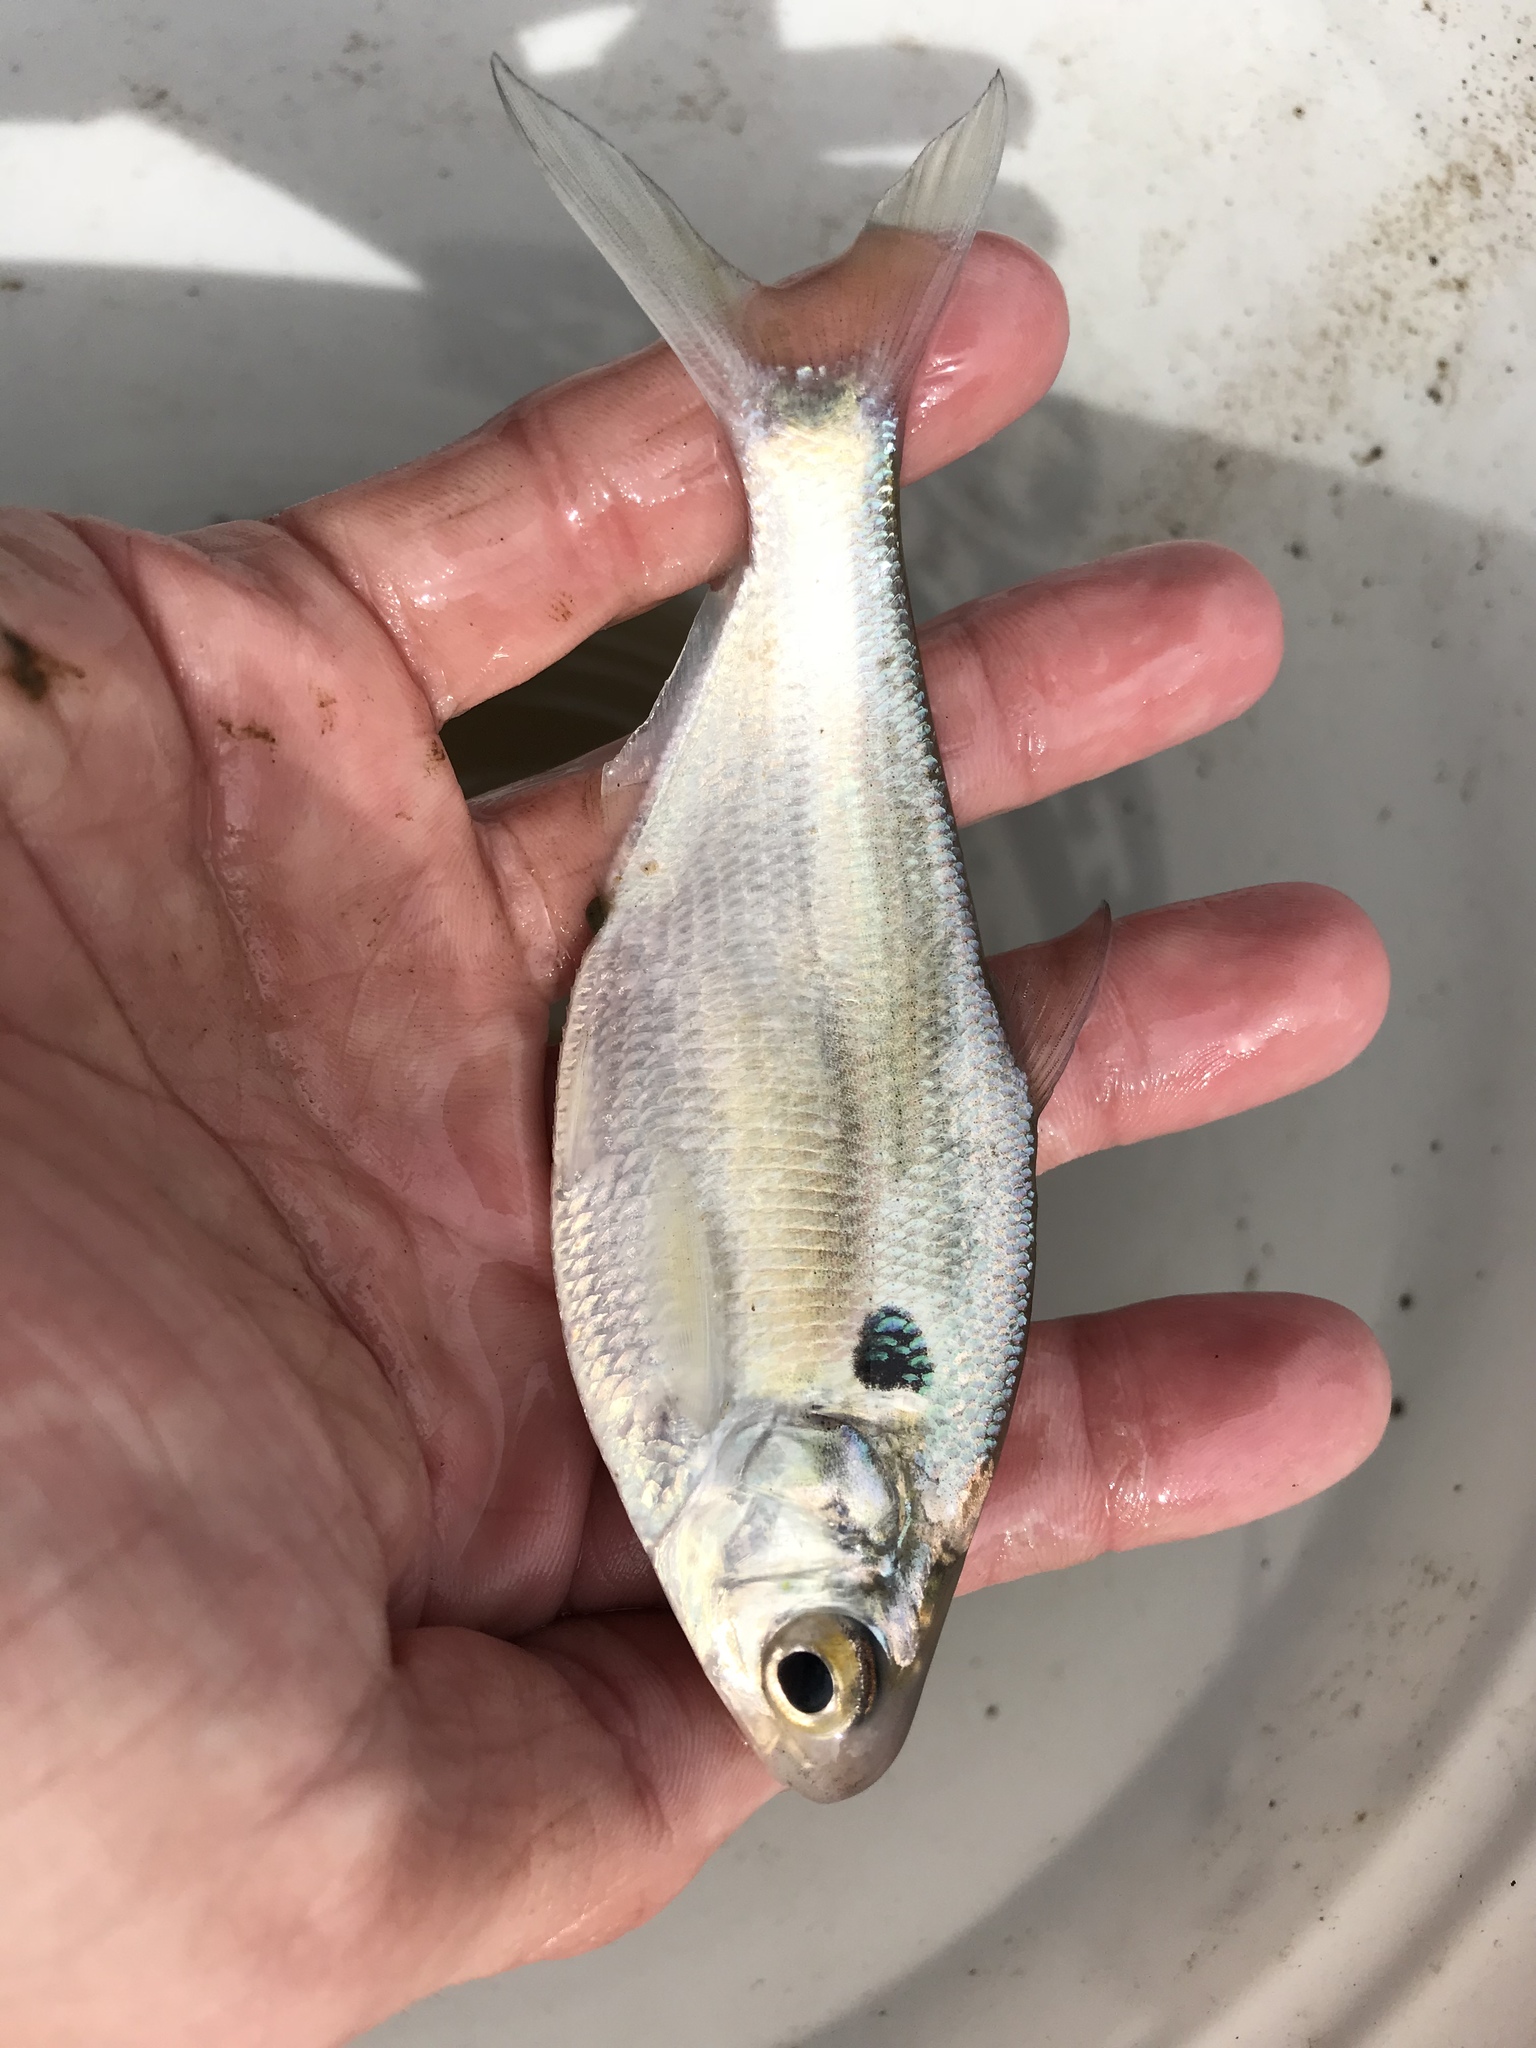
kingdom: Animalia
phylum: Chordata
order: Clupeiformes
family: Clupeidae
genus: Dorosoma
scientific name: Dorosoma cepedianum
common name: Gizzard shad
